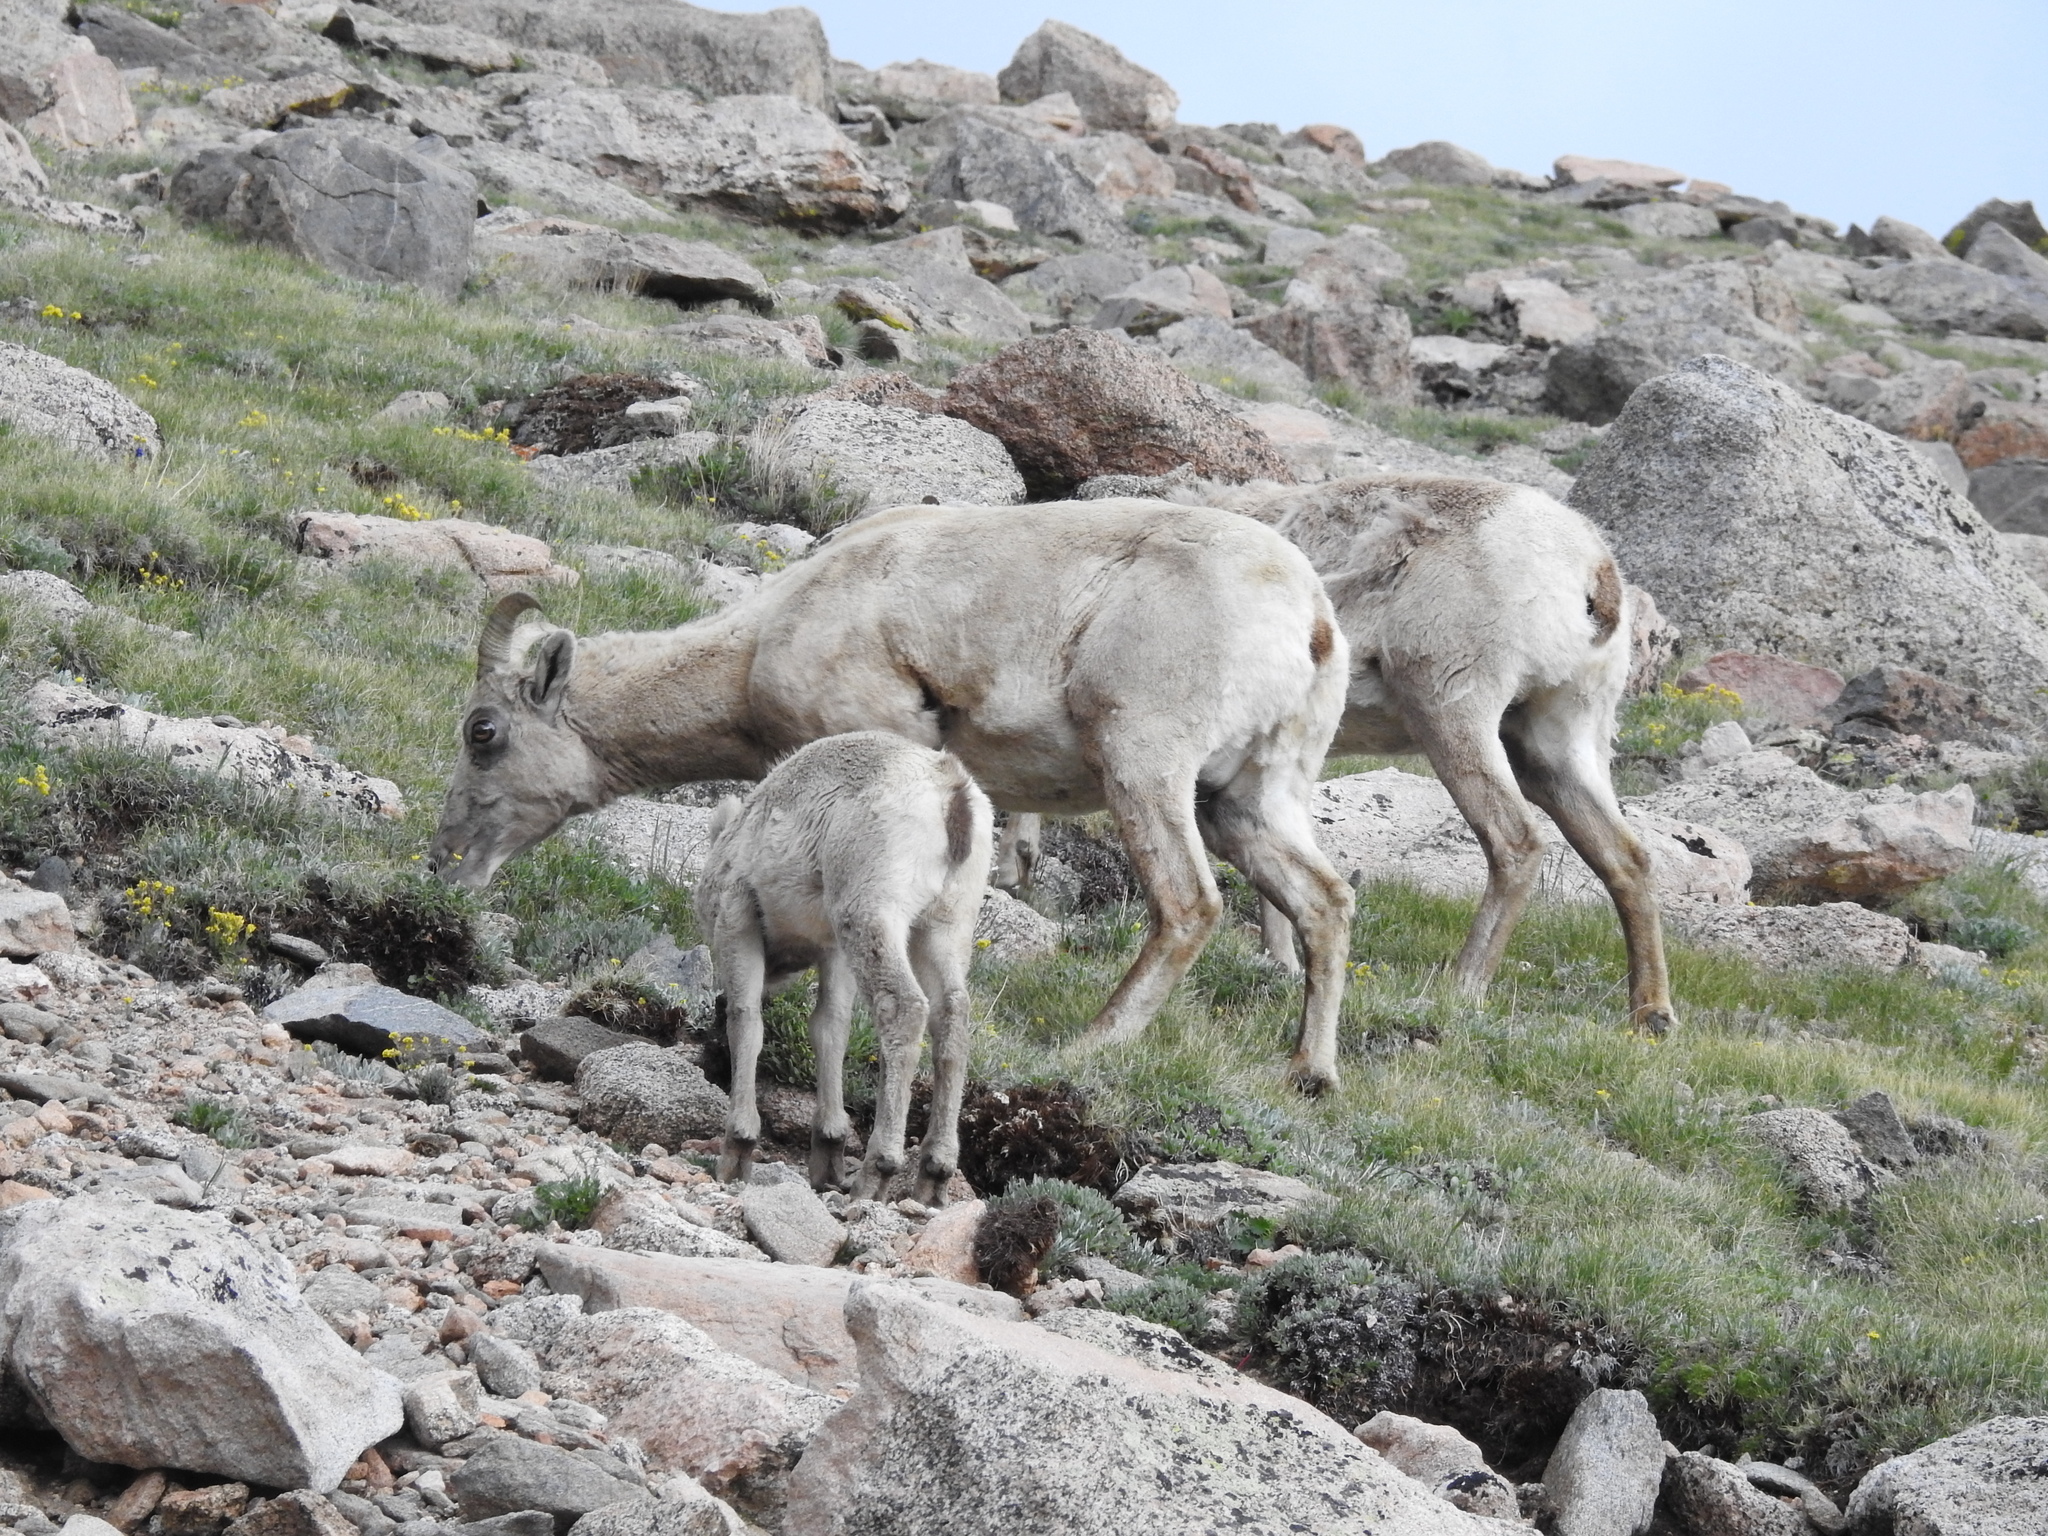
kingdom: Animalia
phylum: Chordata
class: Mammalia
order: Artiodactyla
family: Bovidae
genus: Ovis
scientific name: Ovis canadensis
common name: Bighorn sheep
